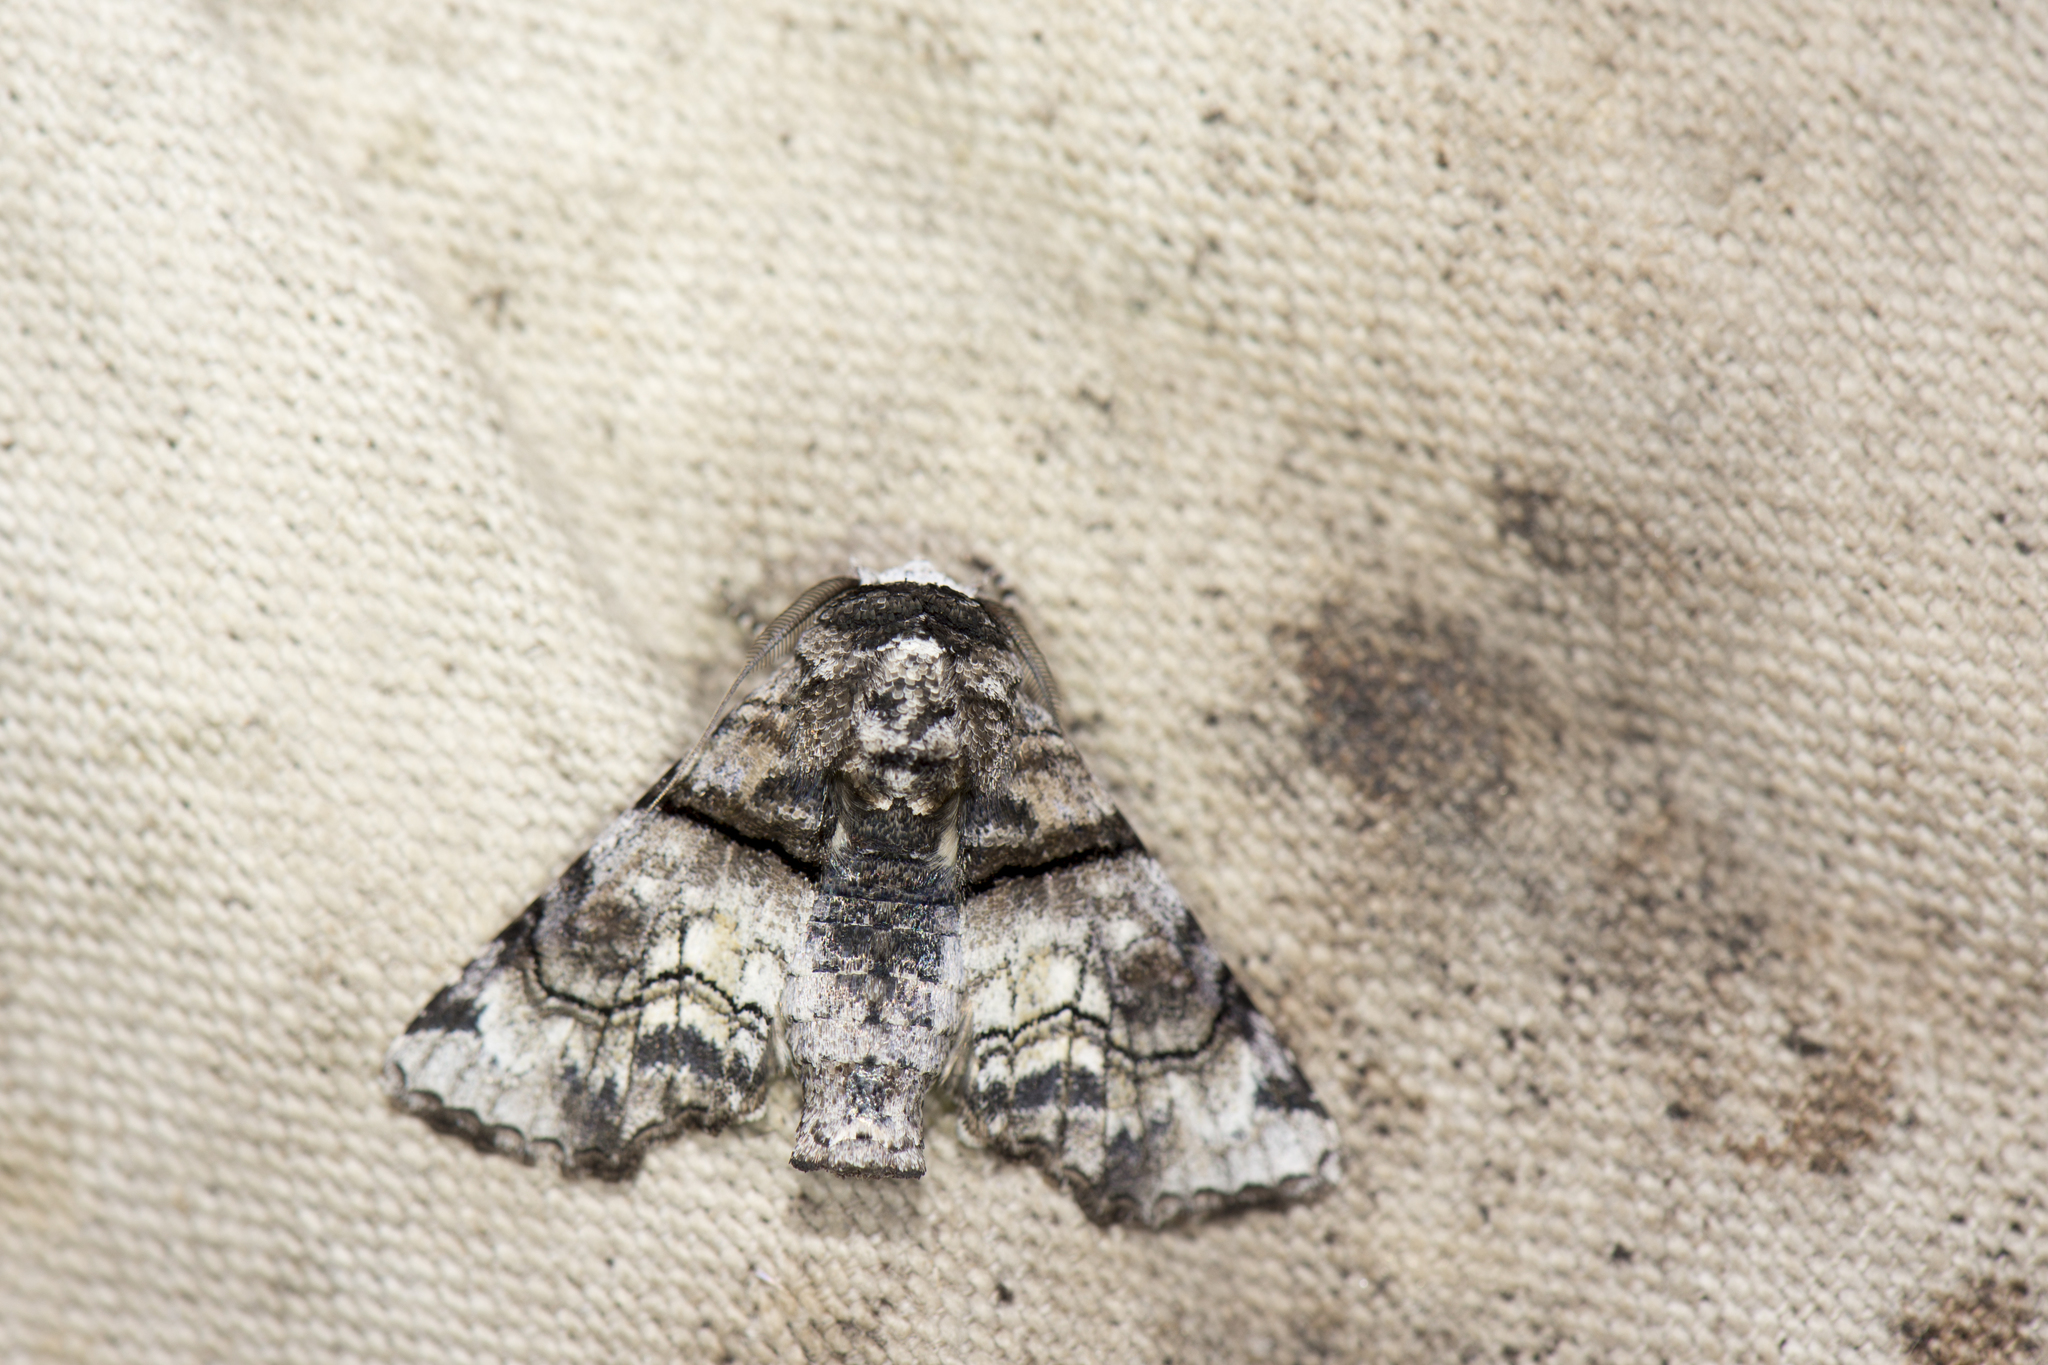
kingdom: Animalia
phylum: Arthropoda
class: Insecta
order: Lepidoptera
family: Euteliidae
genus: Aplotelia
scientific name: Aplotelia diplographa
